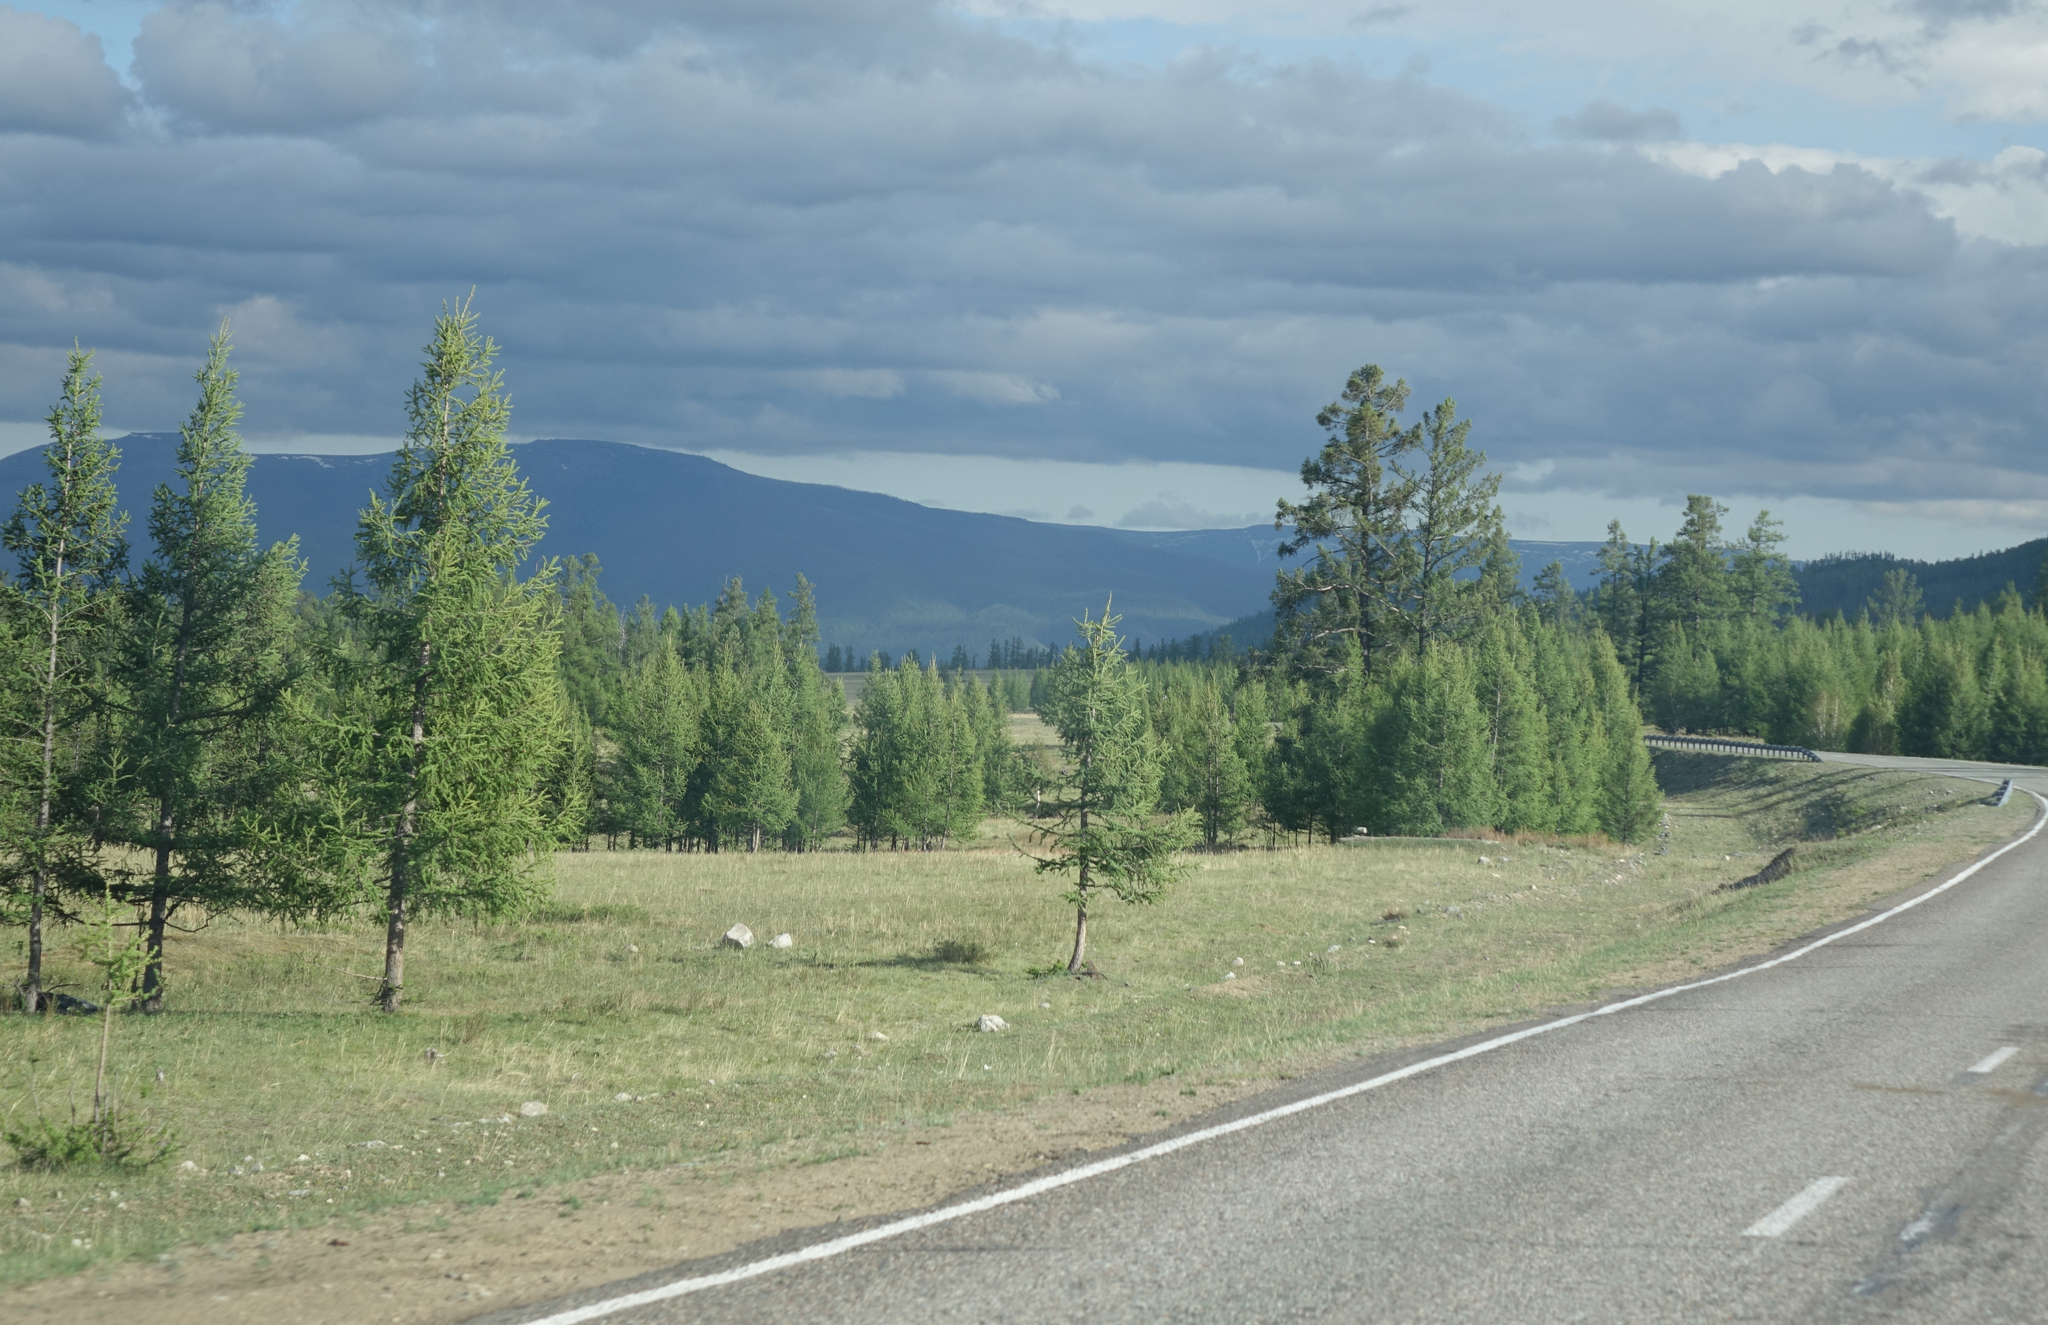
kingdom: Plantae
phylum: Tracheophyta
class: Pinopsida
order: Pinales
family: Pinaceae
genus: Larix
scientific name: Larix sibirica
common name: Siberian larch
